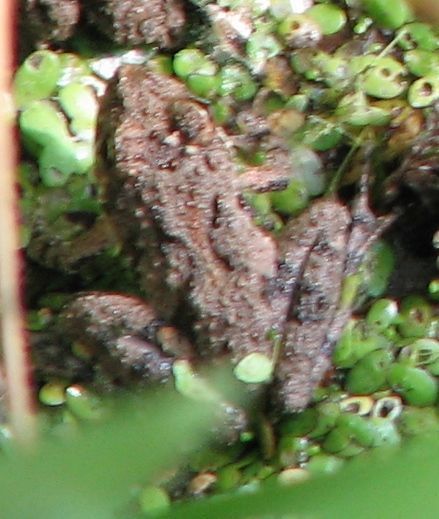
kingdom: Animalia
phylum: Chordata
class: Amphibia
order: Anura
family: Hylidae
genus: Acris
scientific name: Acris crepitans
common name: Northern cricket frog
